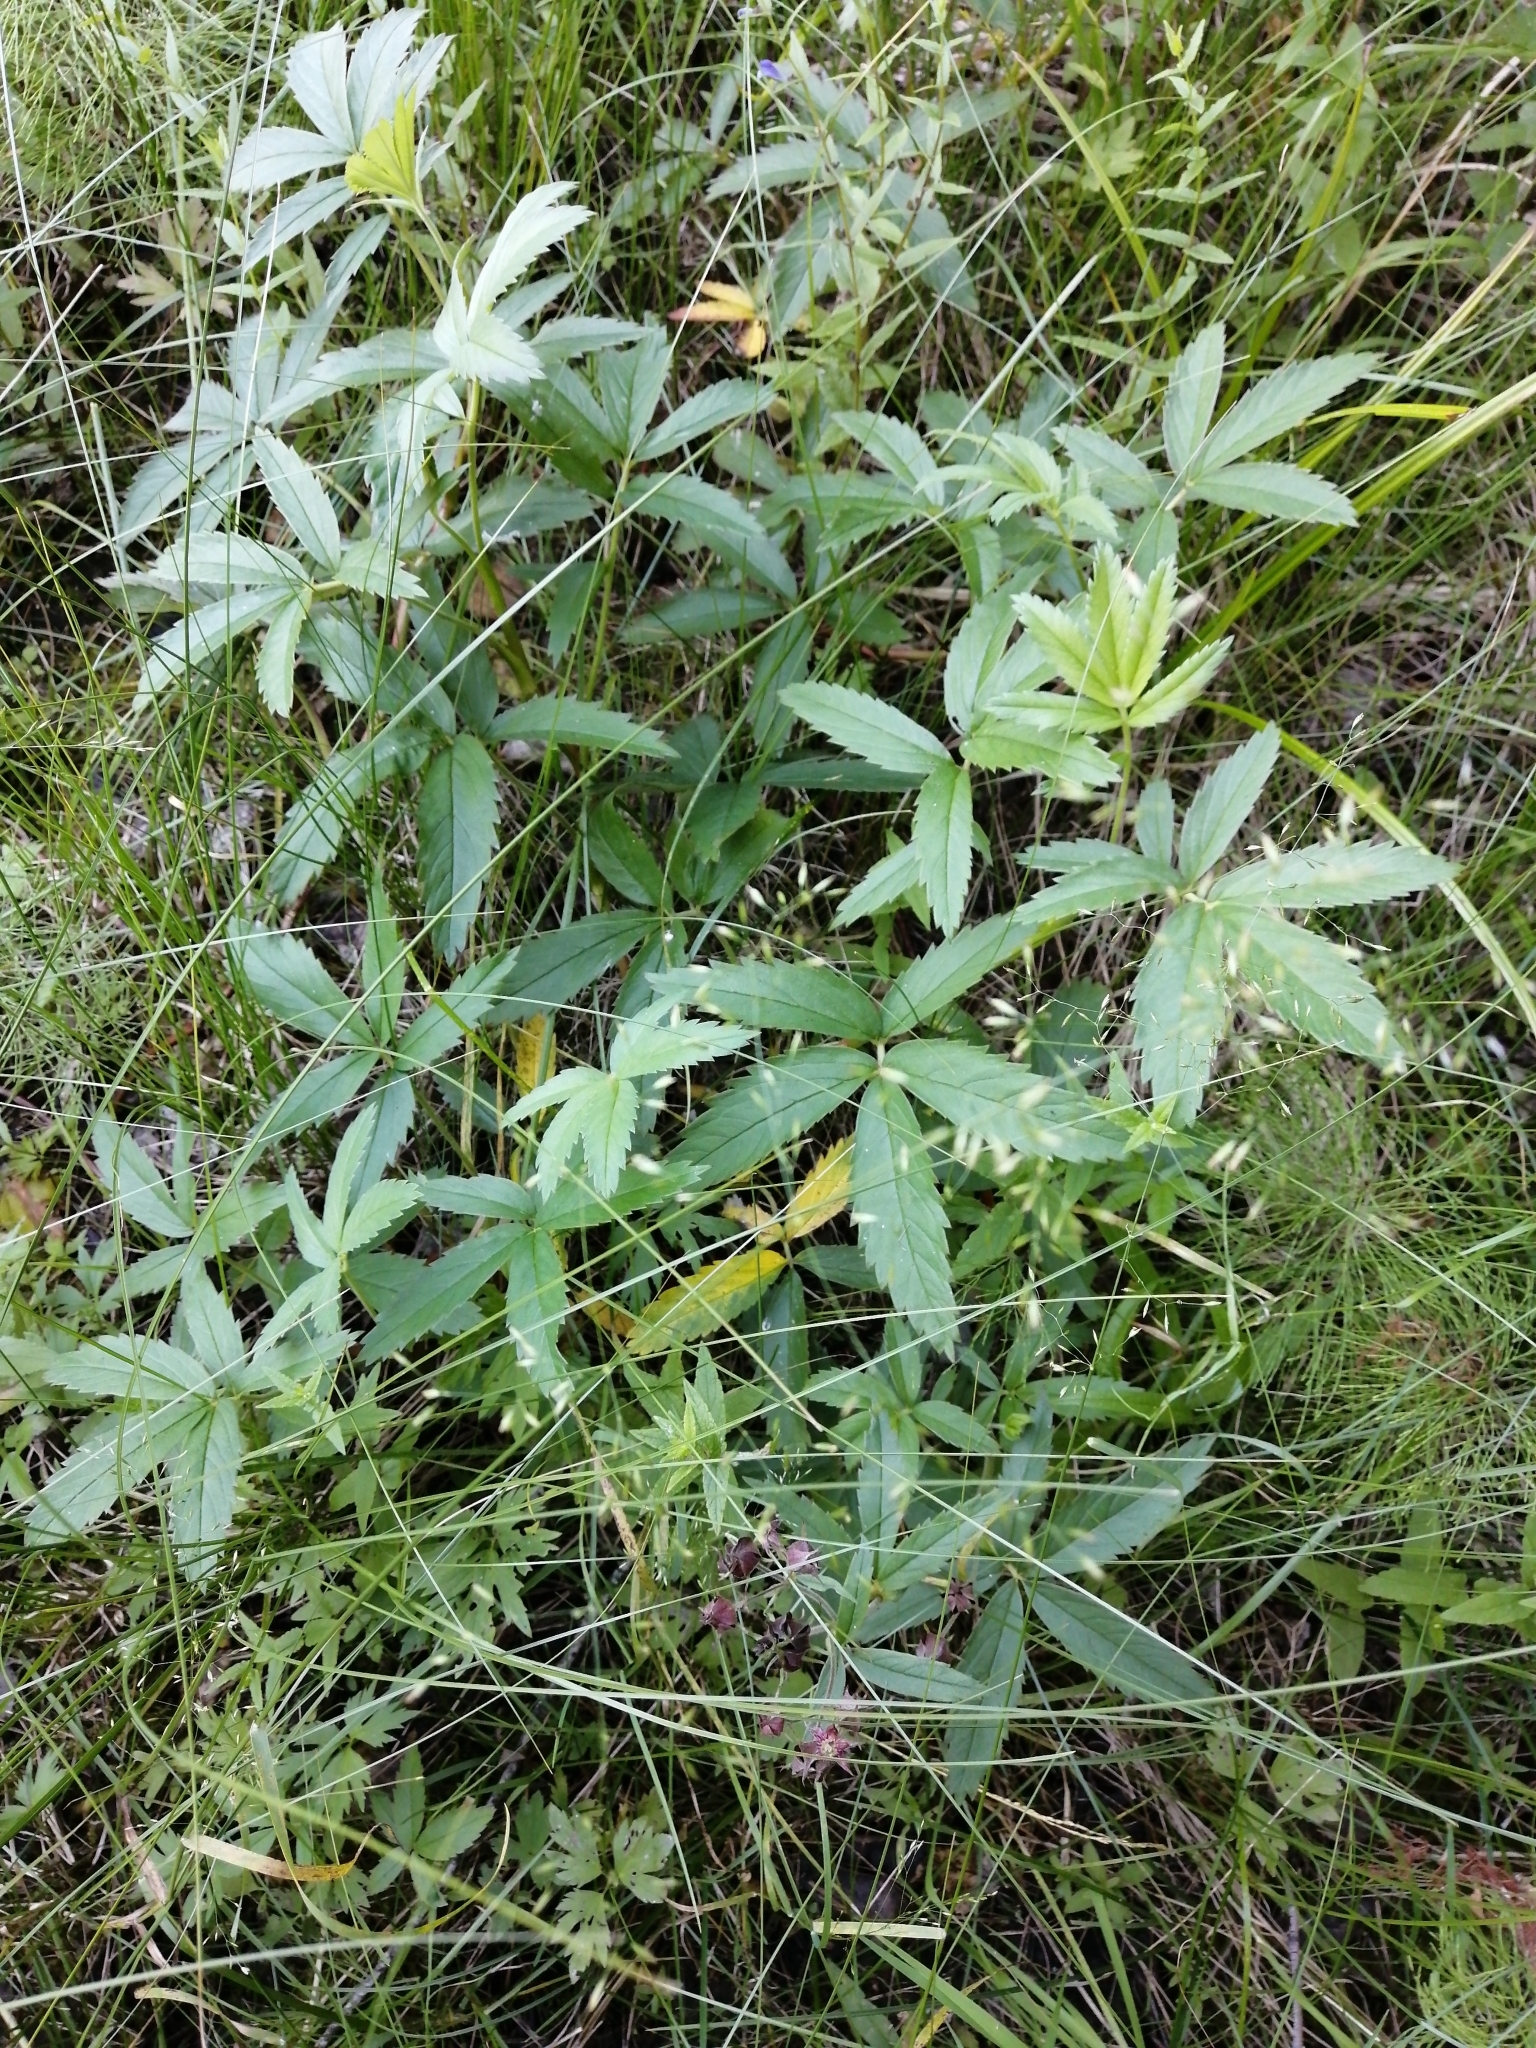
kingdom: Plantae
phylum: Tracheophyta
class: Magnoliopsida
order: Rosales
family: Rosaceae
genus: Comarum
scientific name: Comarum palustre
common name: Marsh cinquefoil
